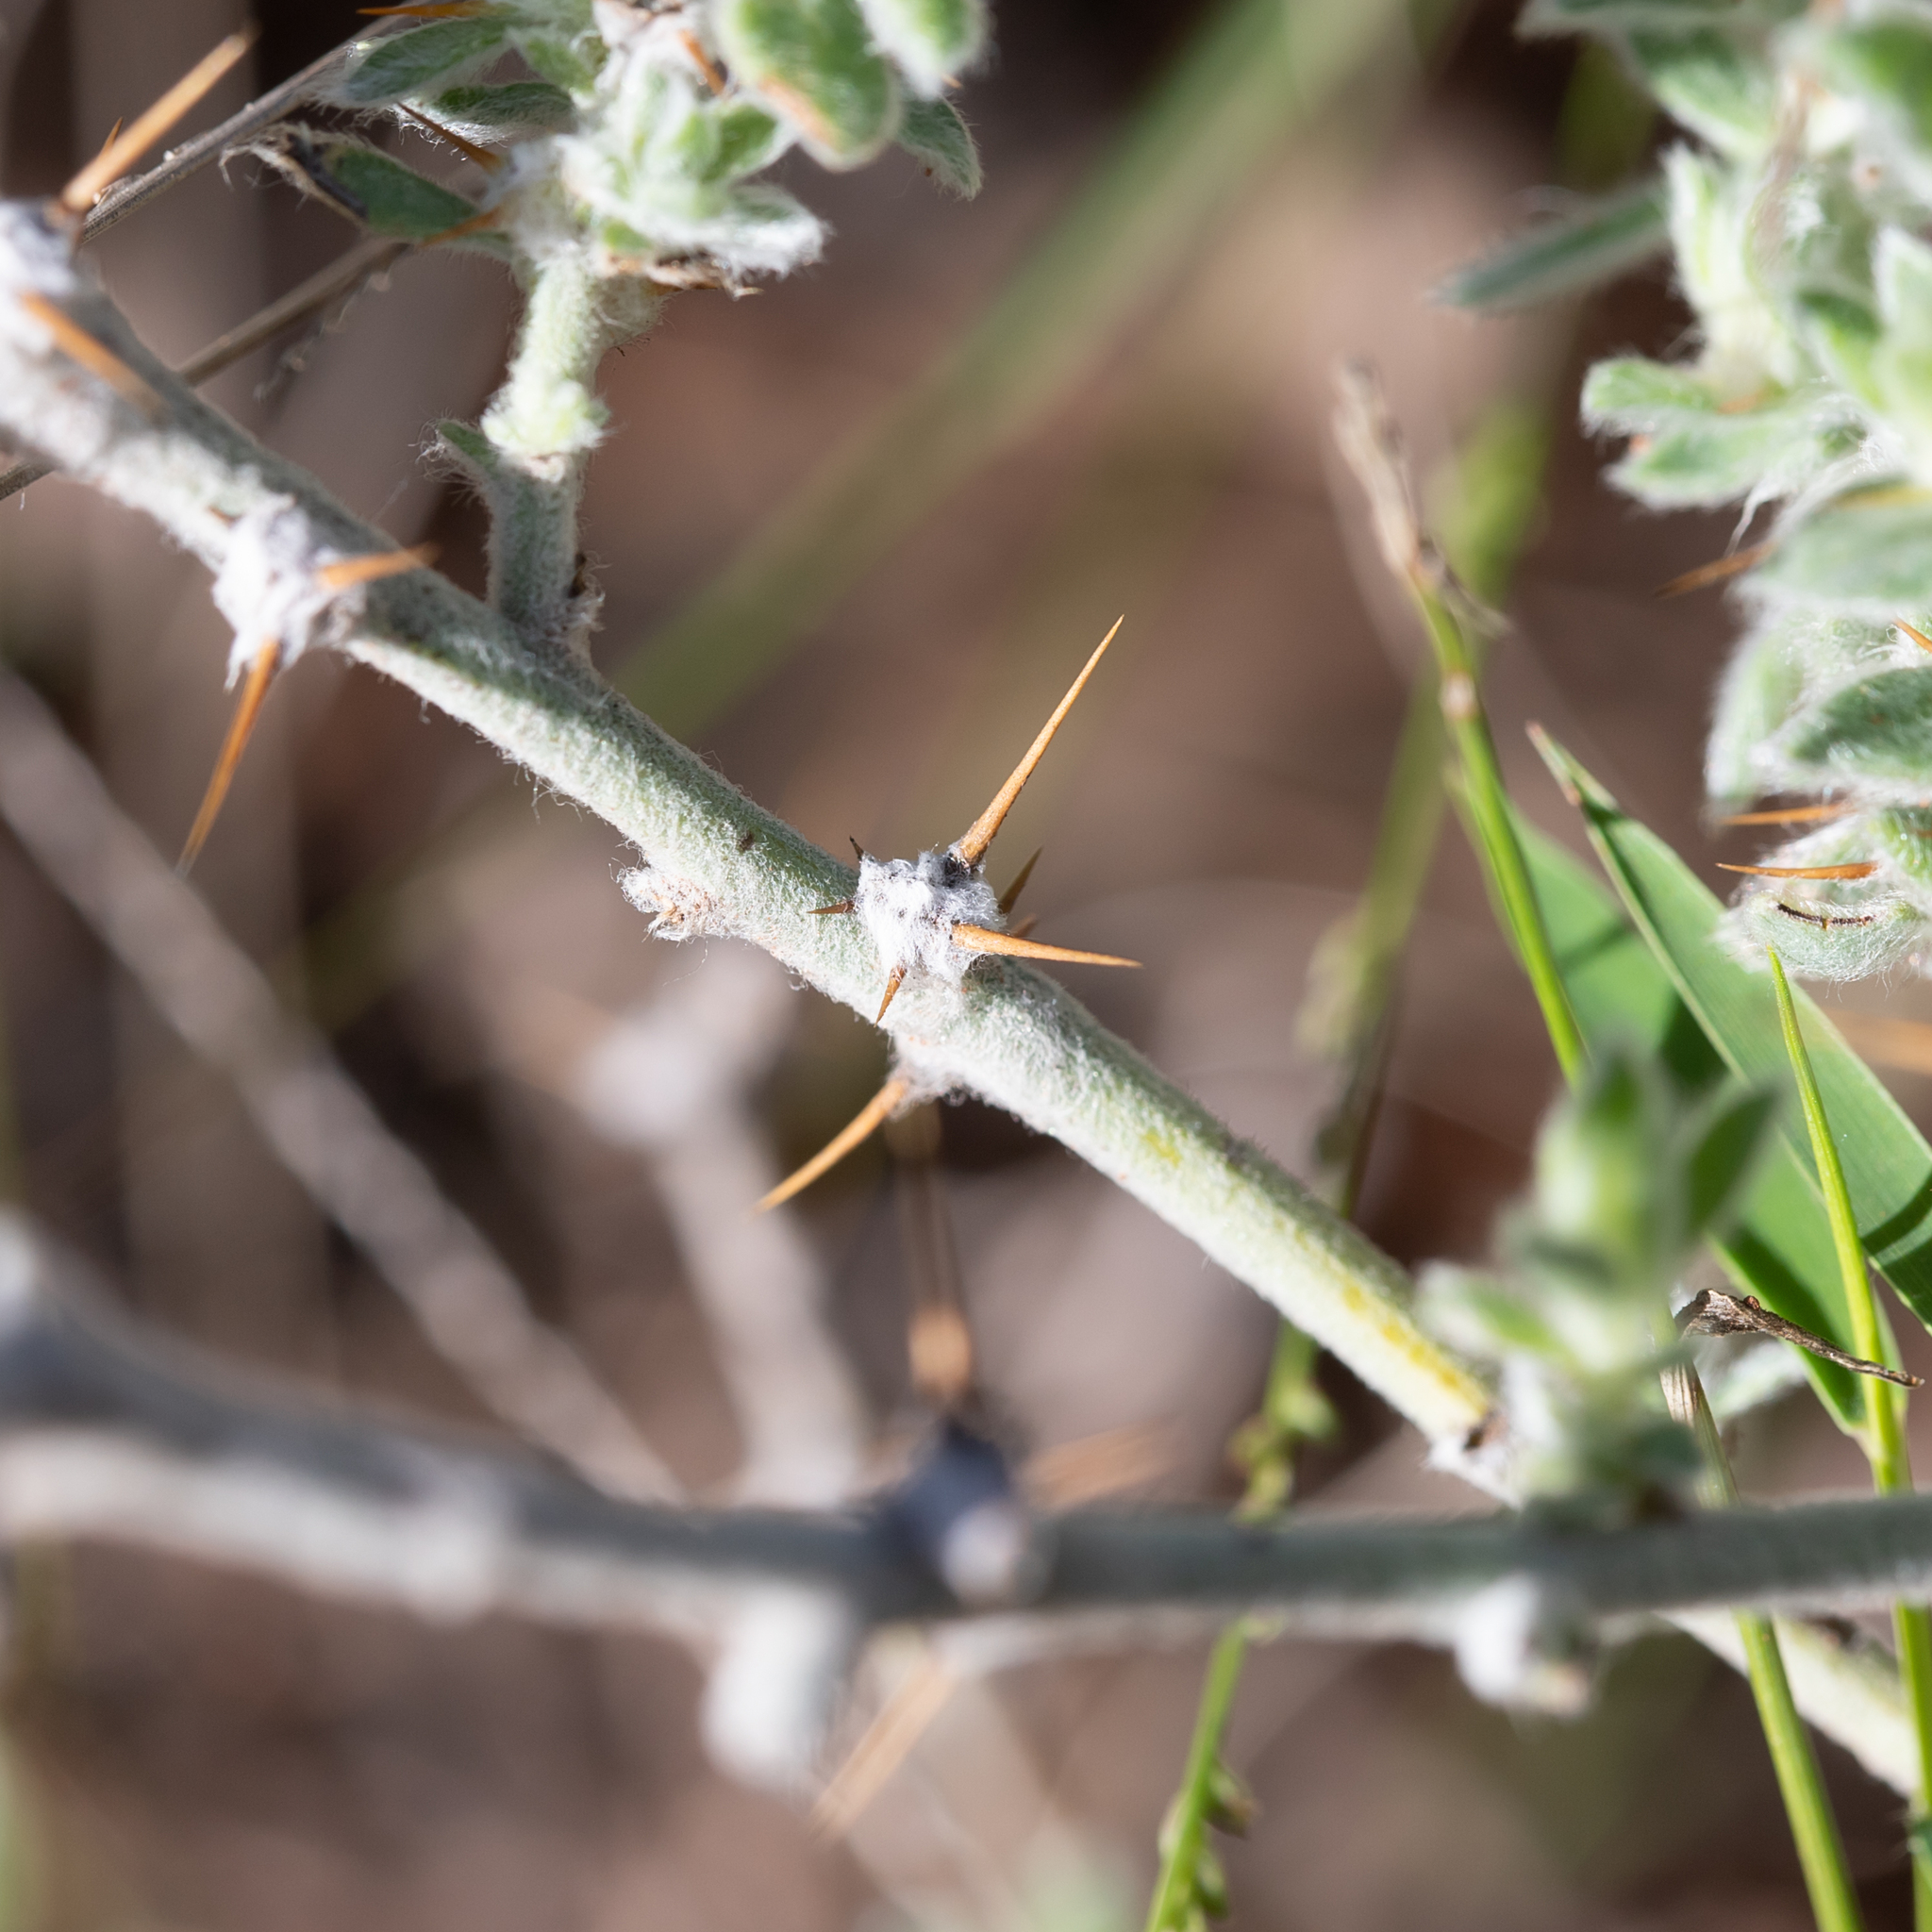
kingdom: Plantae
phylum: Tracheophyta
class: Magnoliopsida
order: Caryophyllales
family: Amaranthaceae
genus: Sclerolaena
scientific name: Sclerolaena birchii
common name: Galvanized bur
